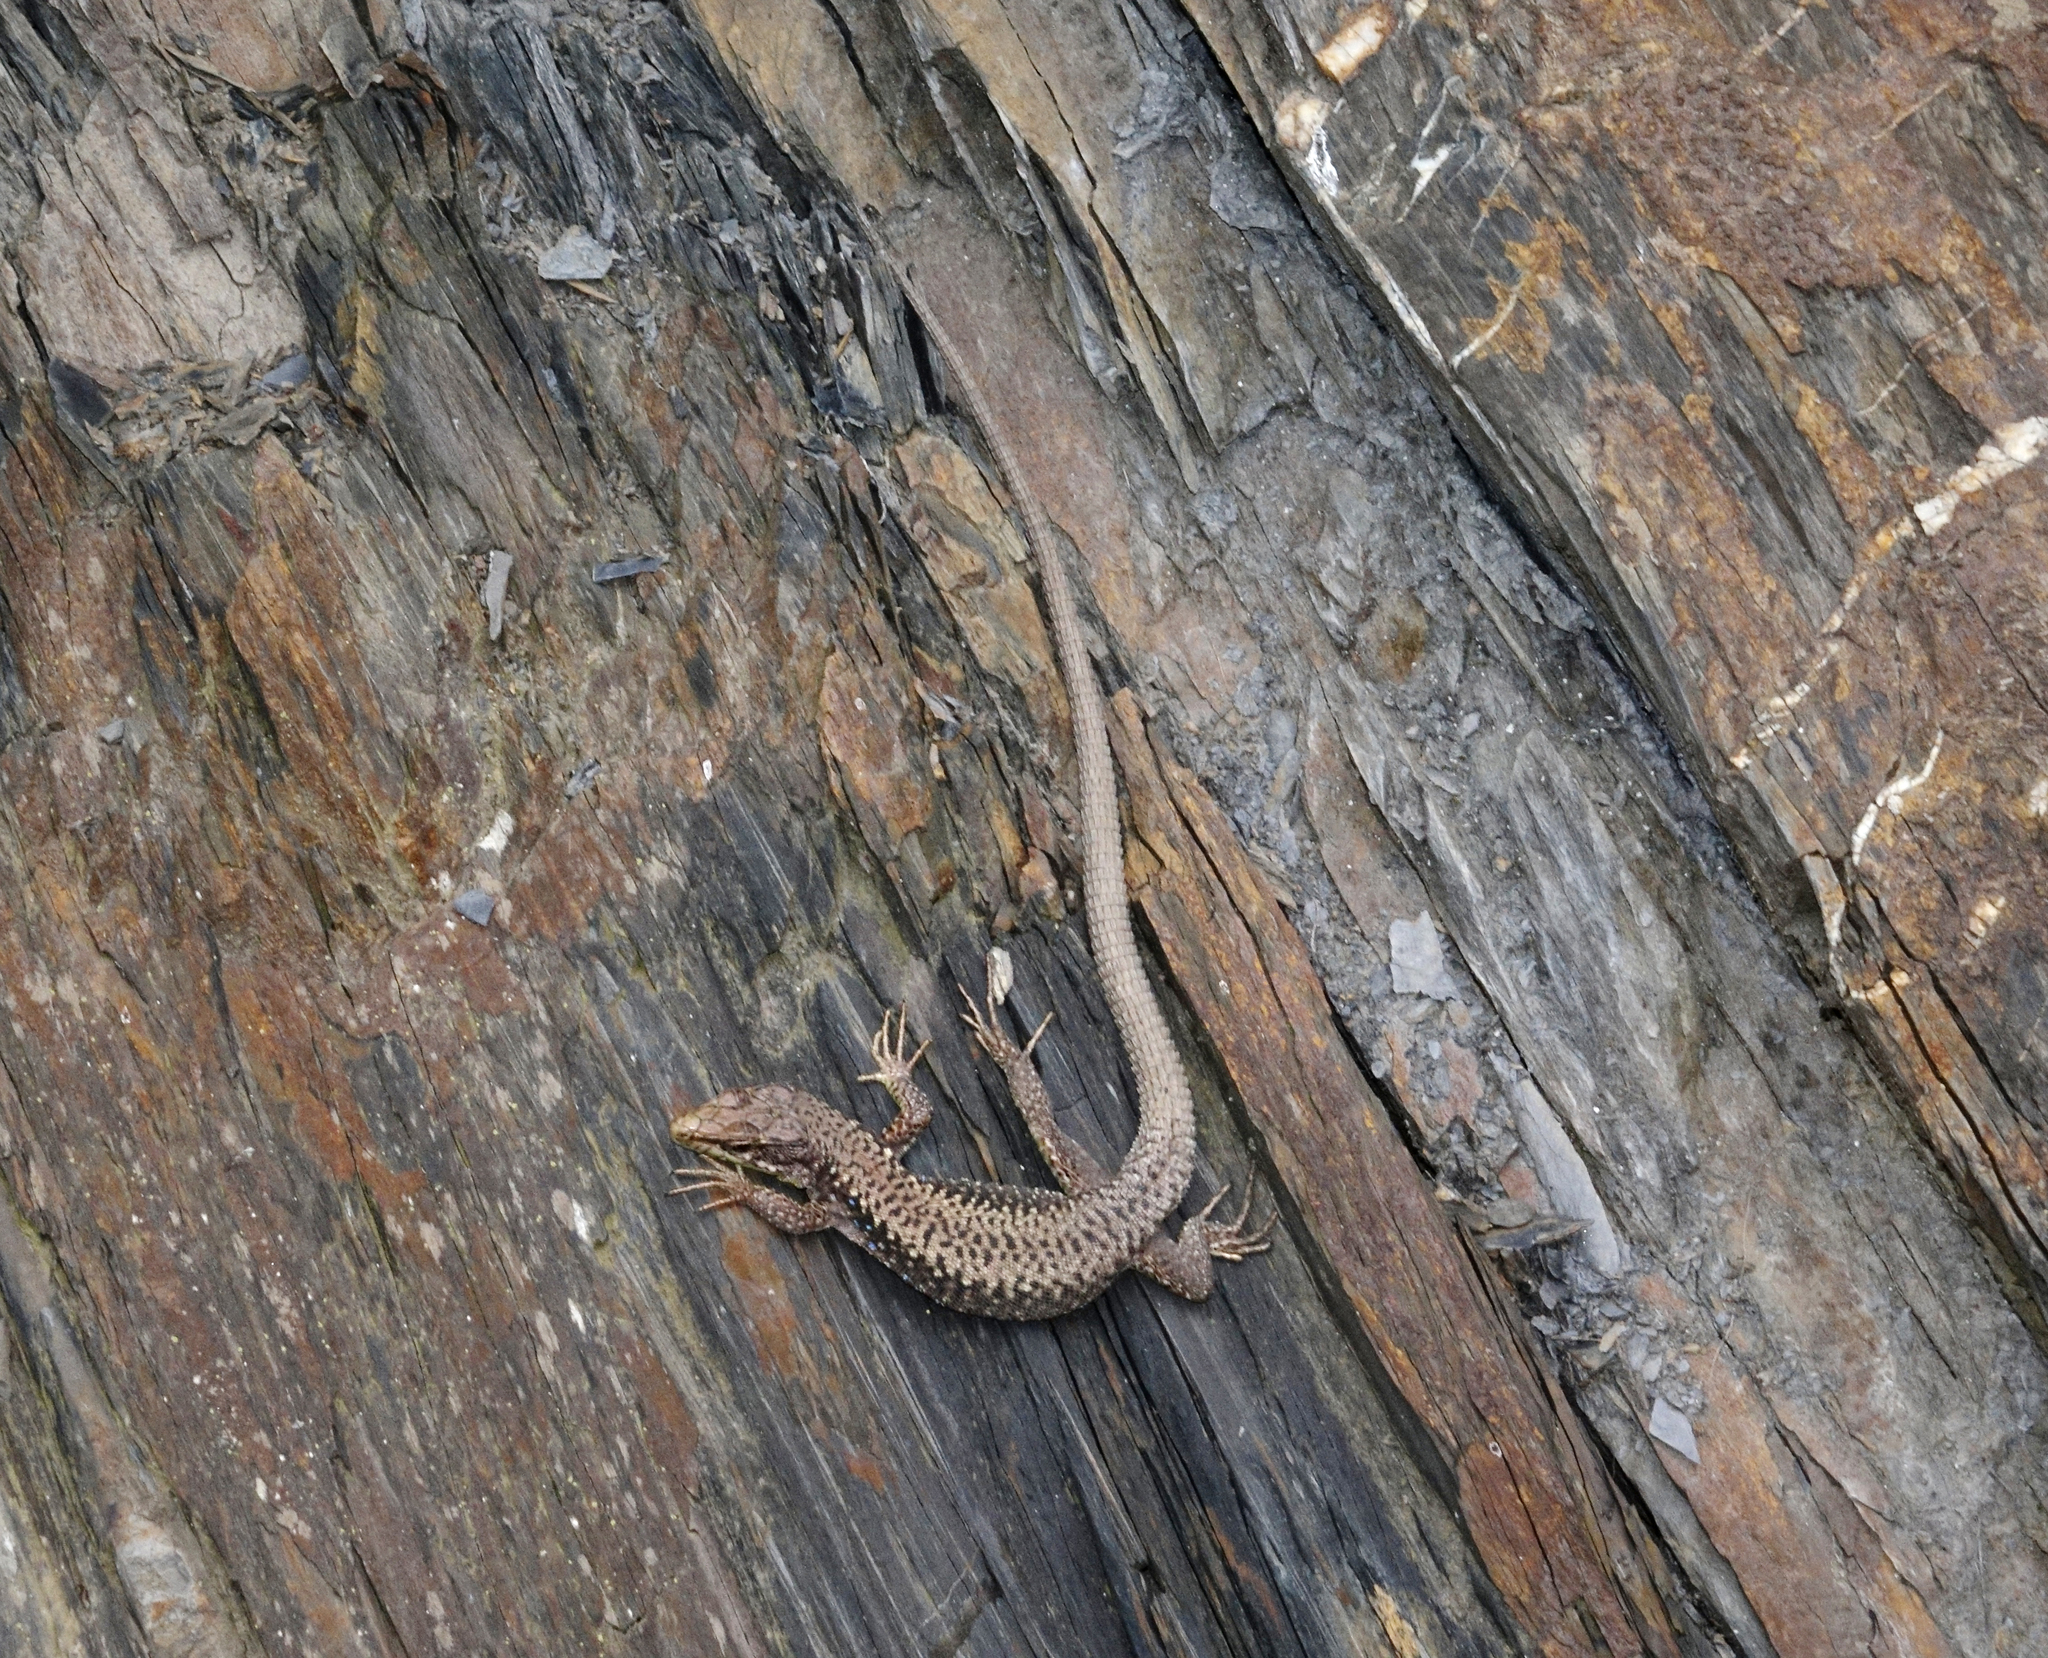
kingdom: Animalia
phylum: Chordata
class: Squamata
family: Lacertidae
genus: Darevskia
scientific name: Darevskia rudis
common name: Spiny-tailed lizard
